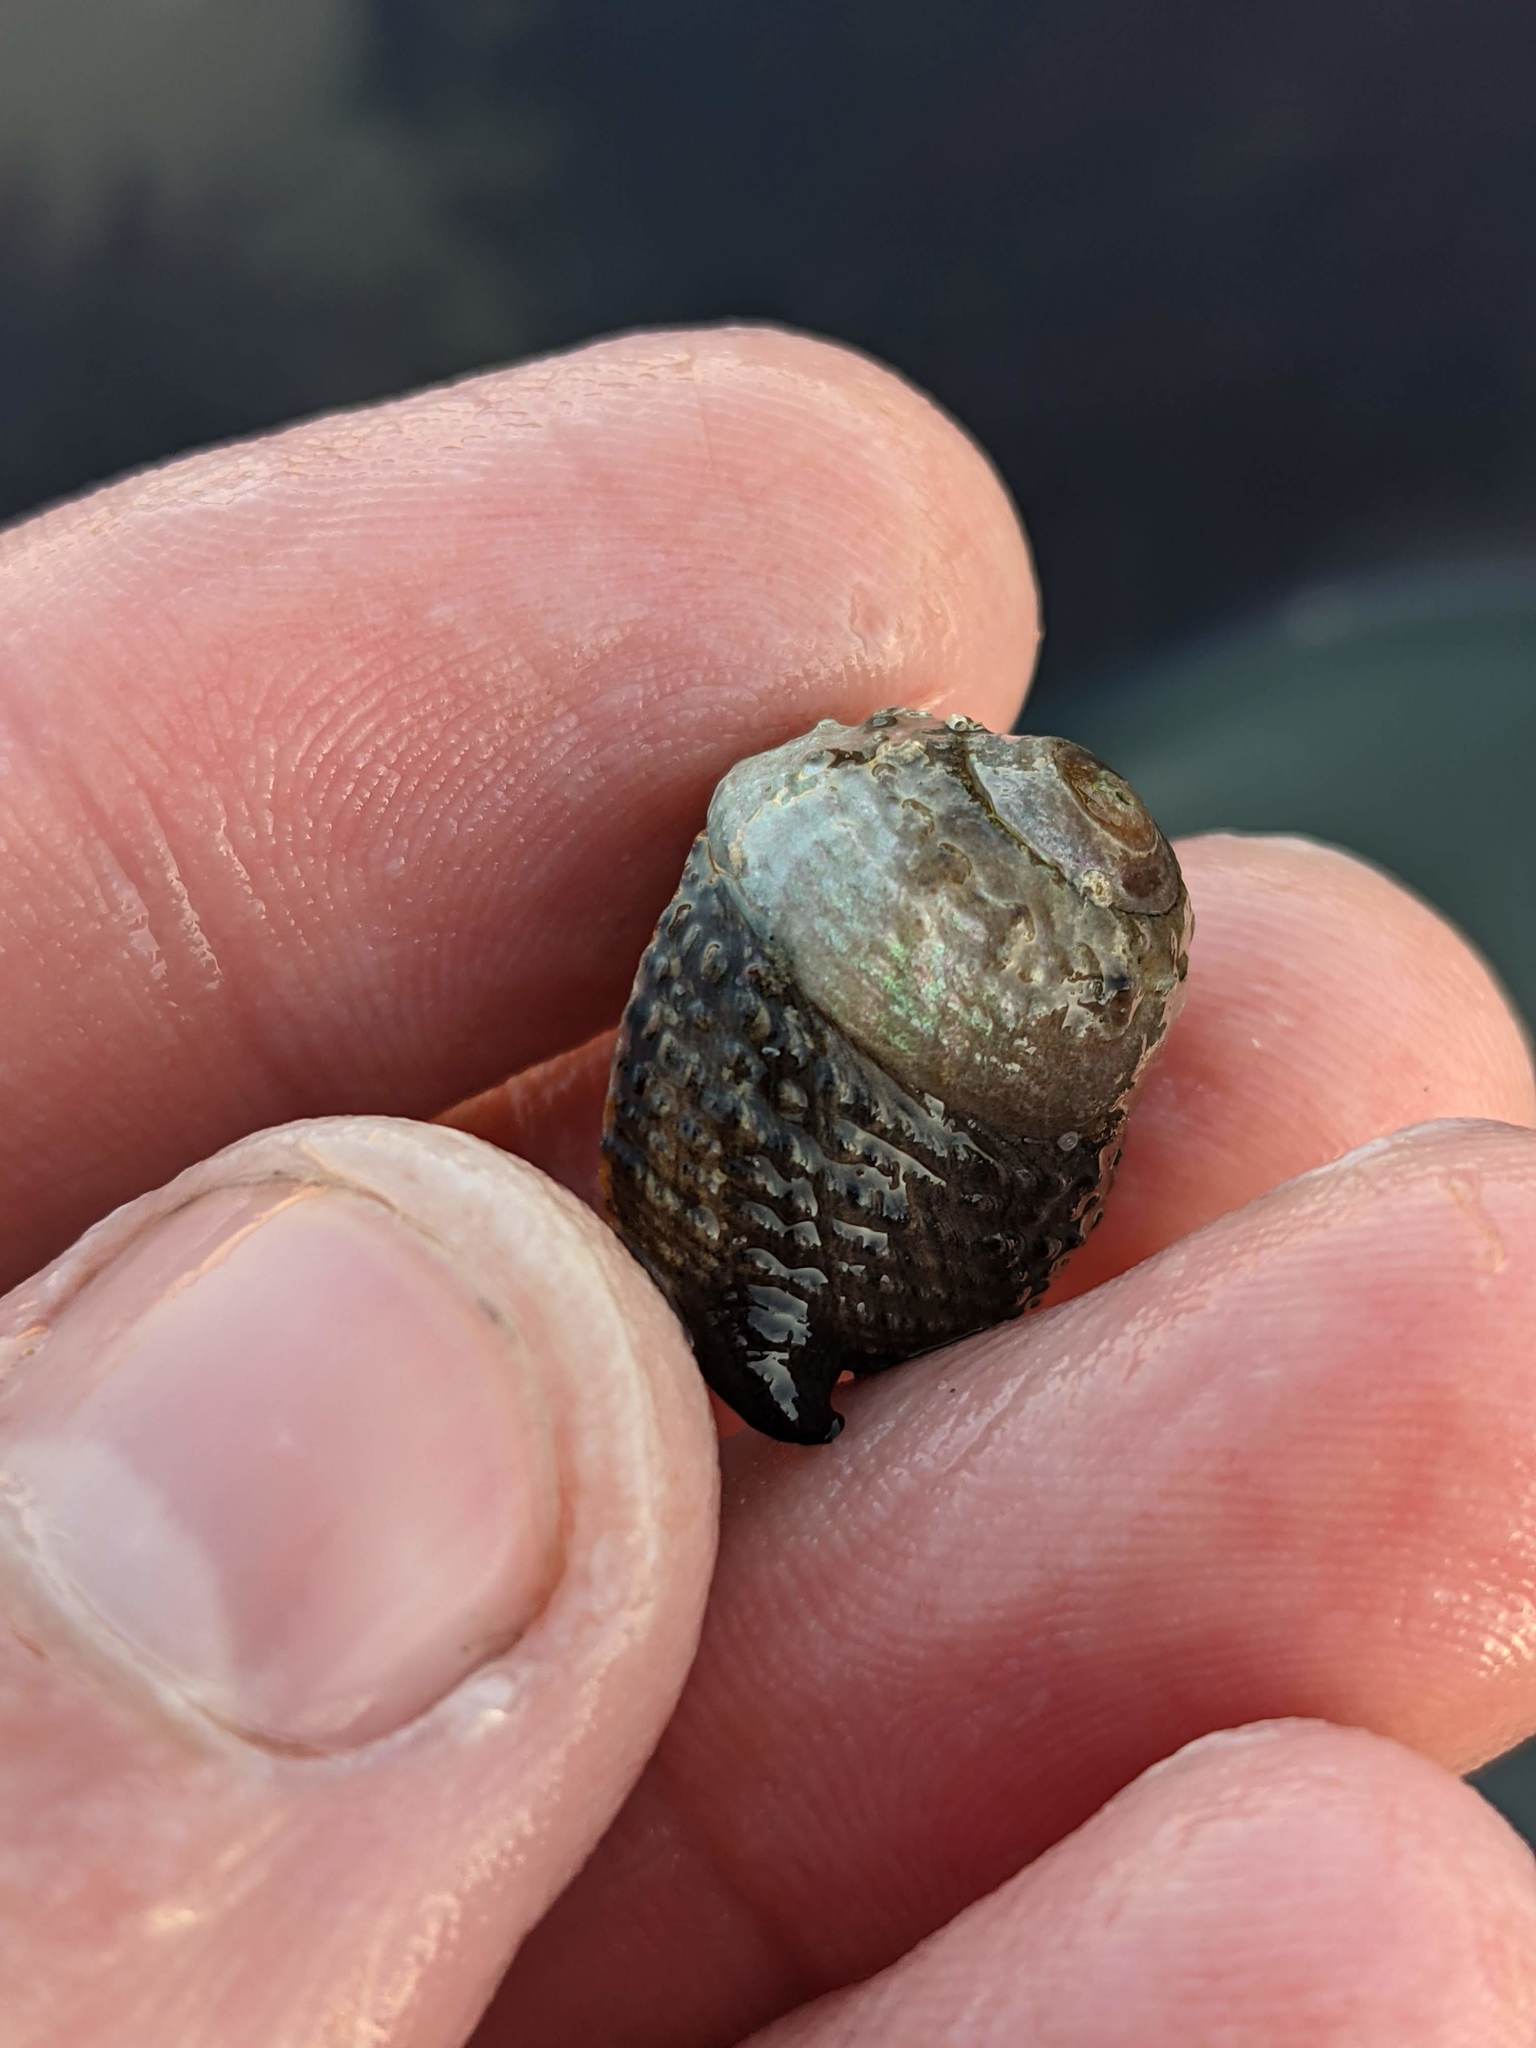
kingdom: Animalia
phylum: Mollusca
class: Gastropoda
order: Trochida
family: Tegulidae
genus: Tegula
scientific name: Tegula eiseni
